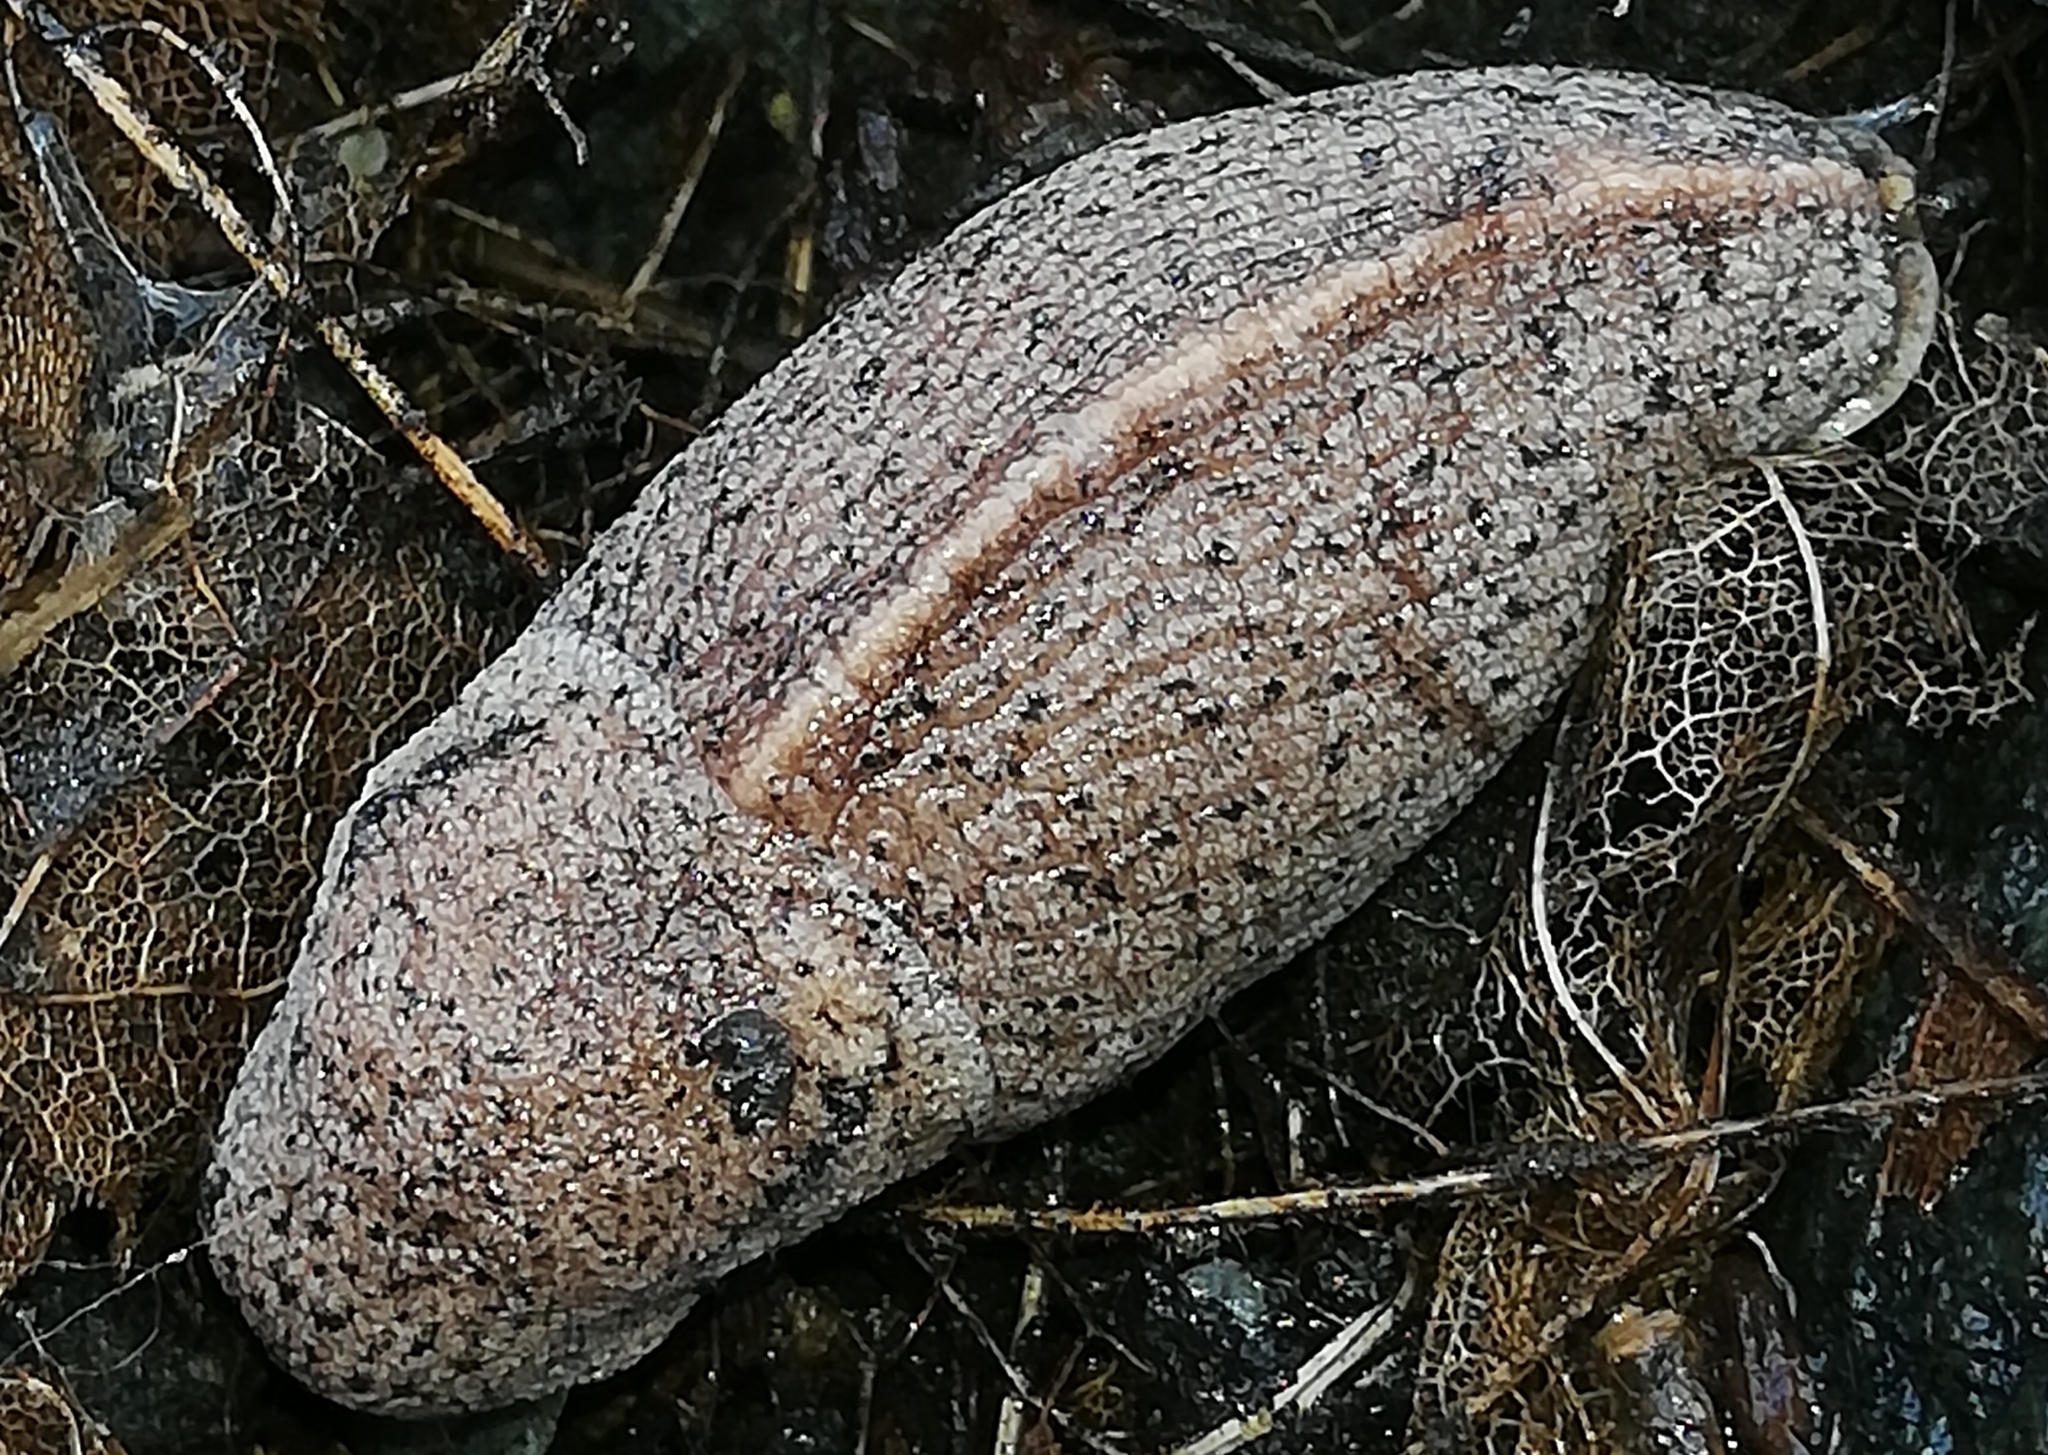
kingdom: Animalia
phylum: Mollusca
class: Gastropoda
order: Stylommatophora
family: Milacidae
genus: Tandonia
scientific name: Tandonia rustica
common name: Bulb-eating slug
